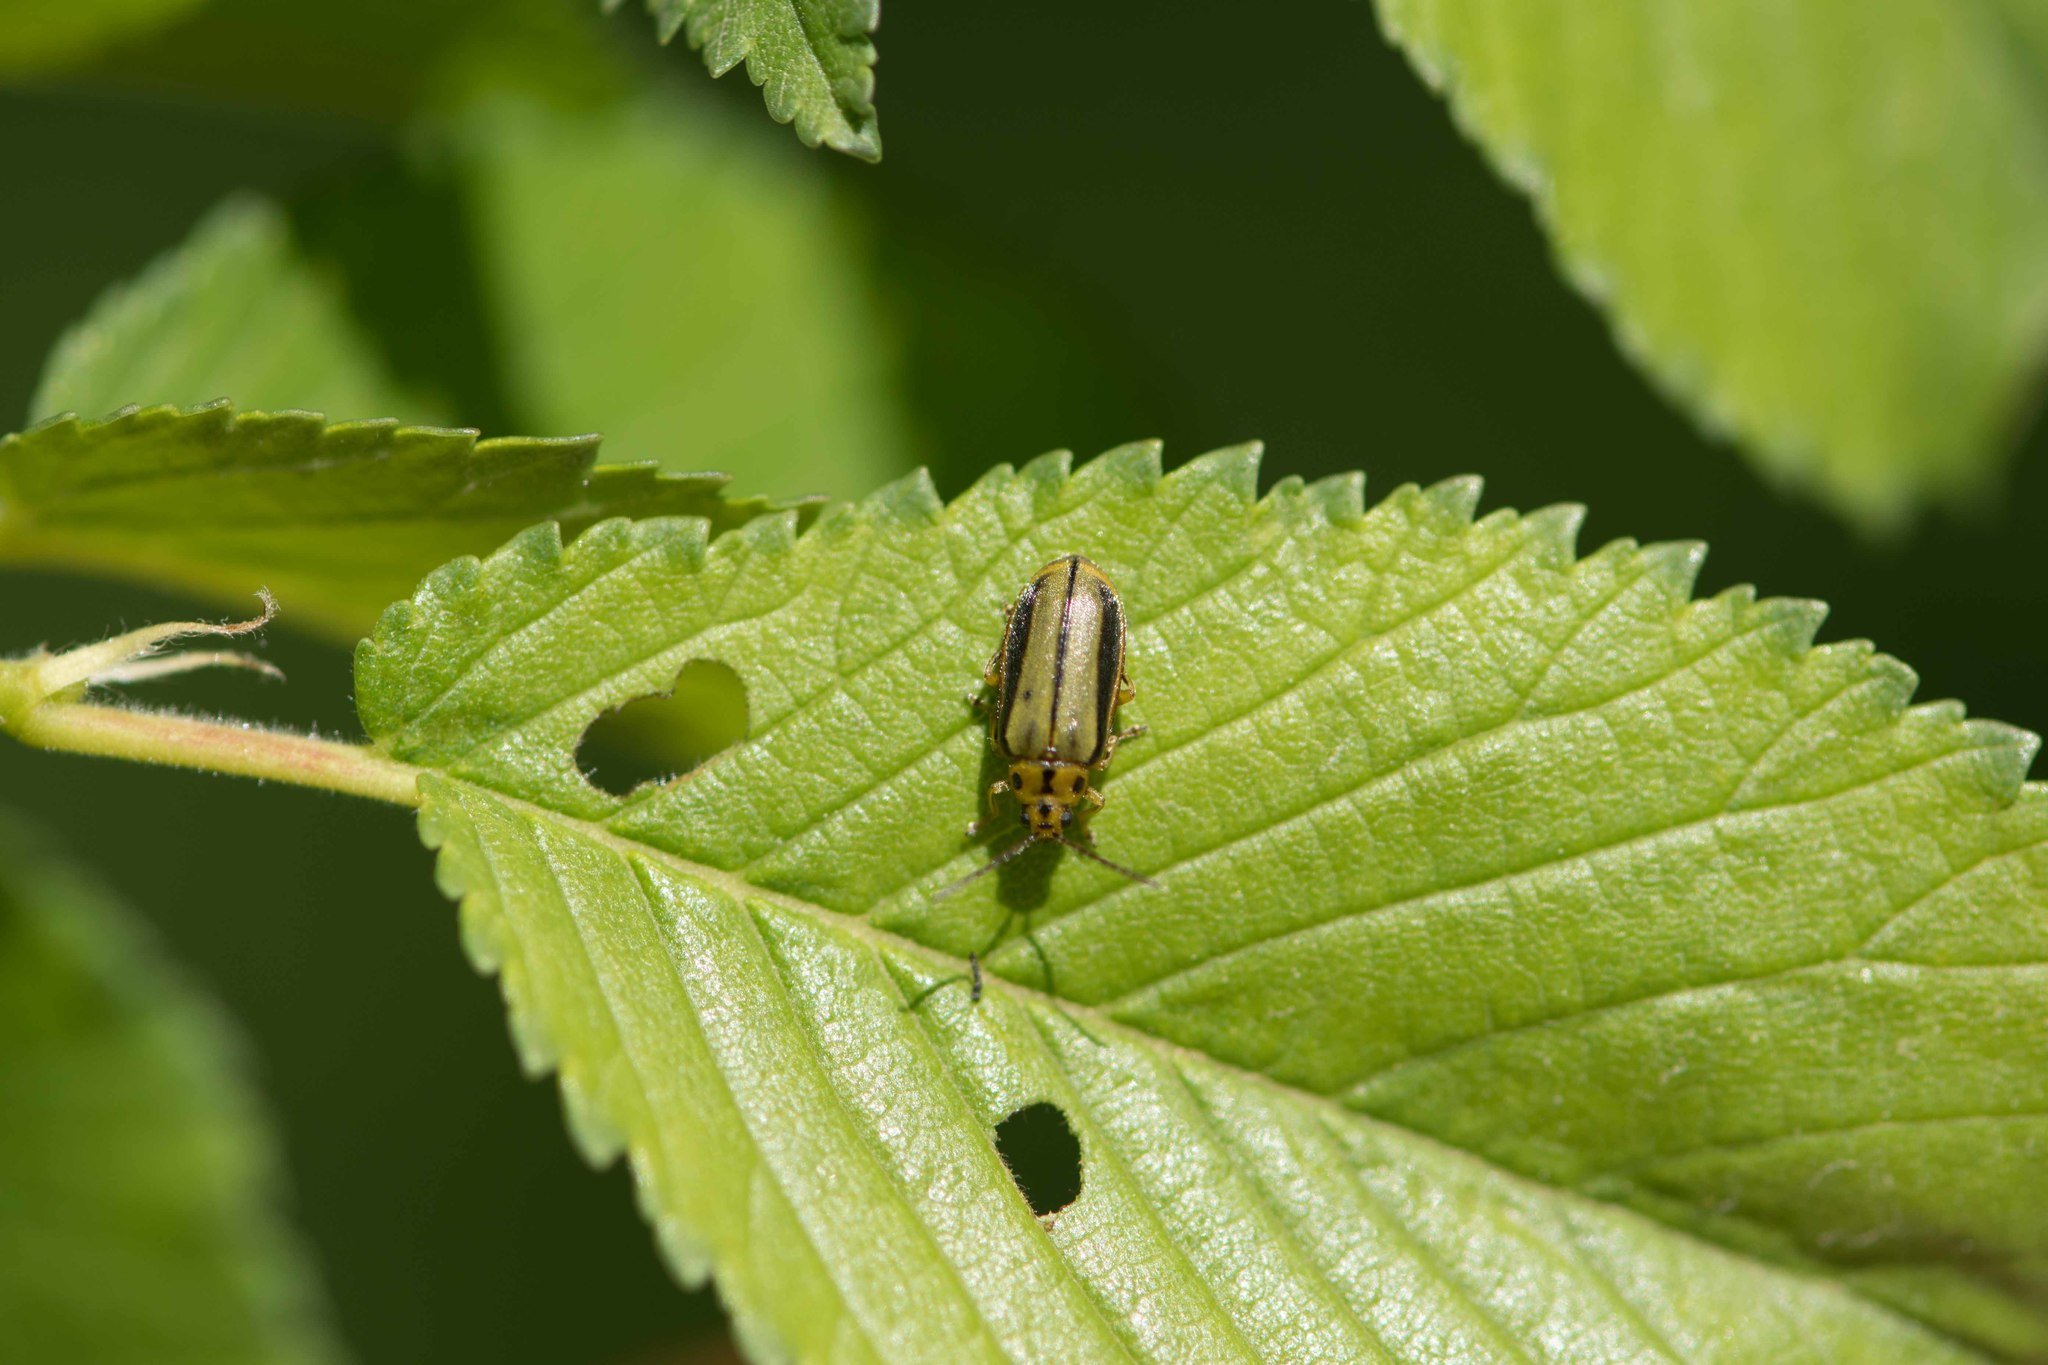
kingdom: Animalia
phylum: Arthropoda
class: Insecta
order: Coleoptera
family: Chrysomelidae
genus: Xanthogaleruca
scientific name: Xanthogaleruca luteola
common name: Elm leaf beetle
